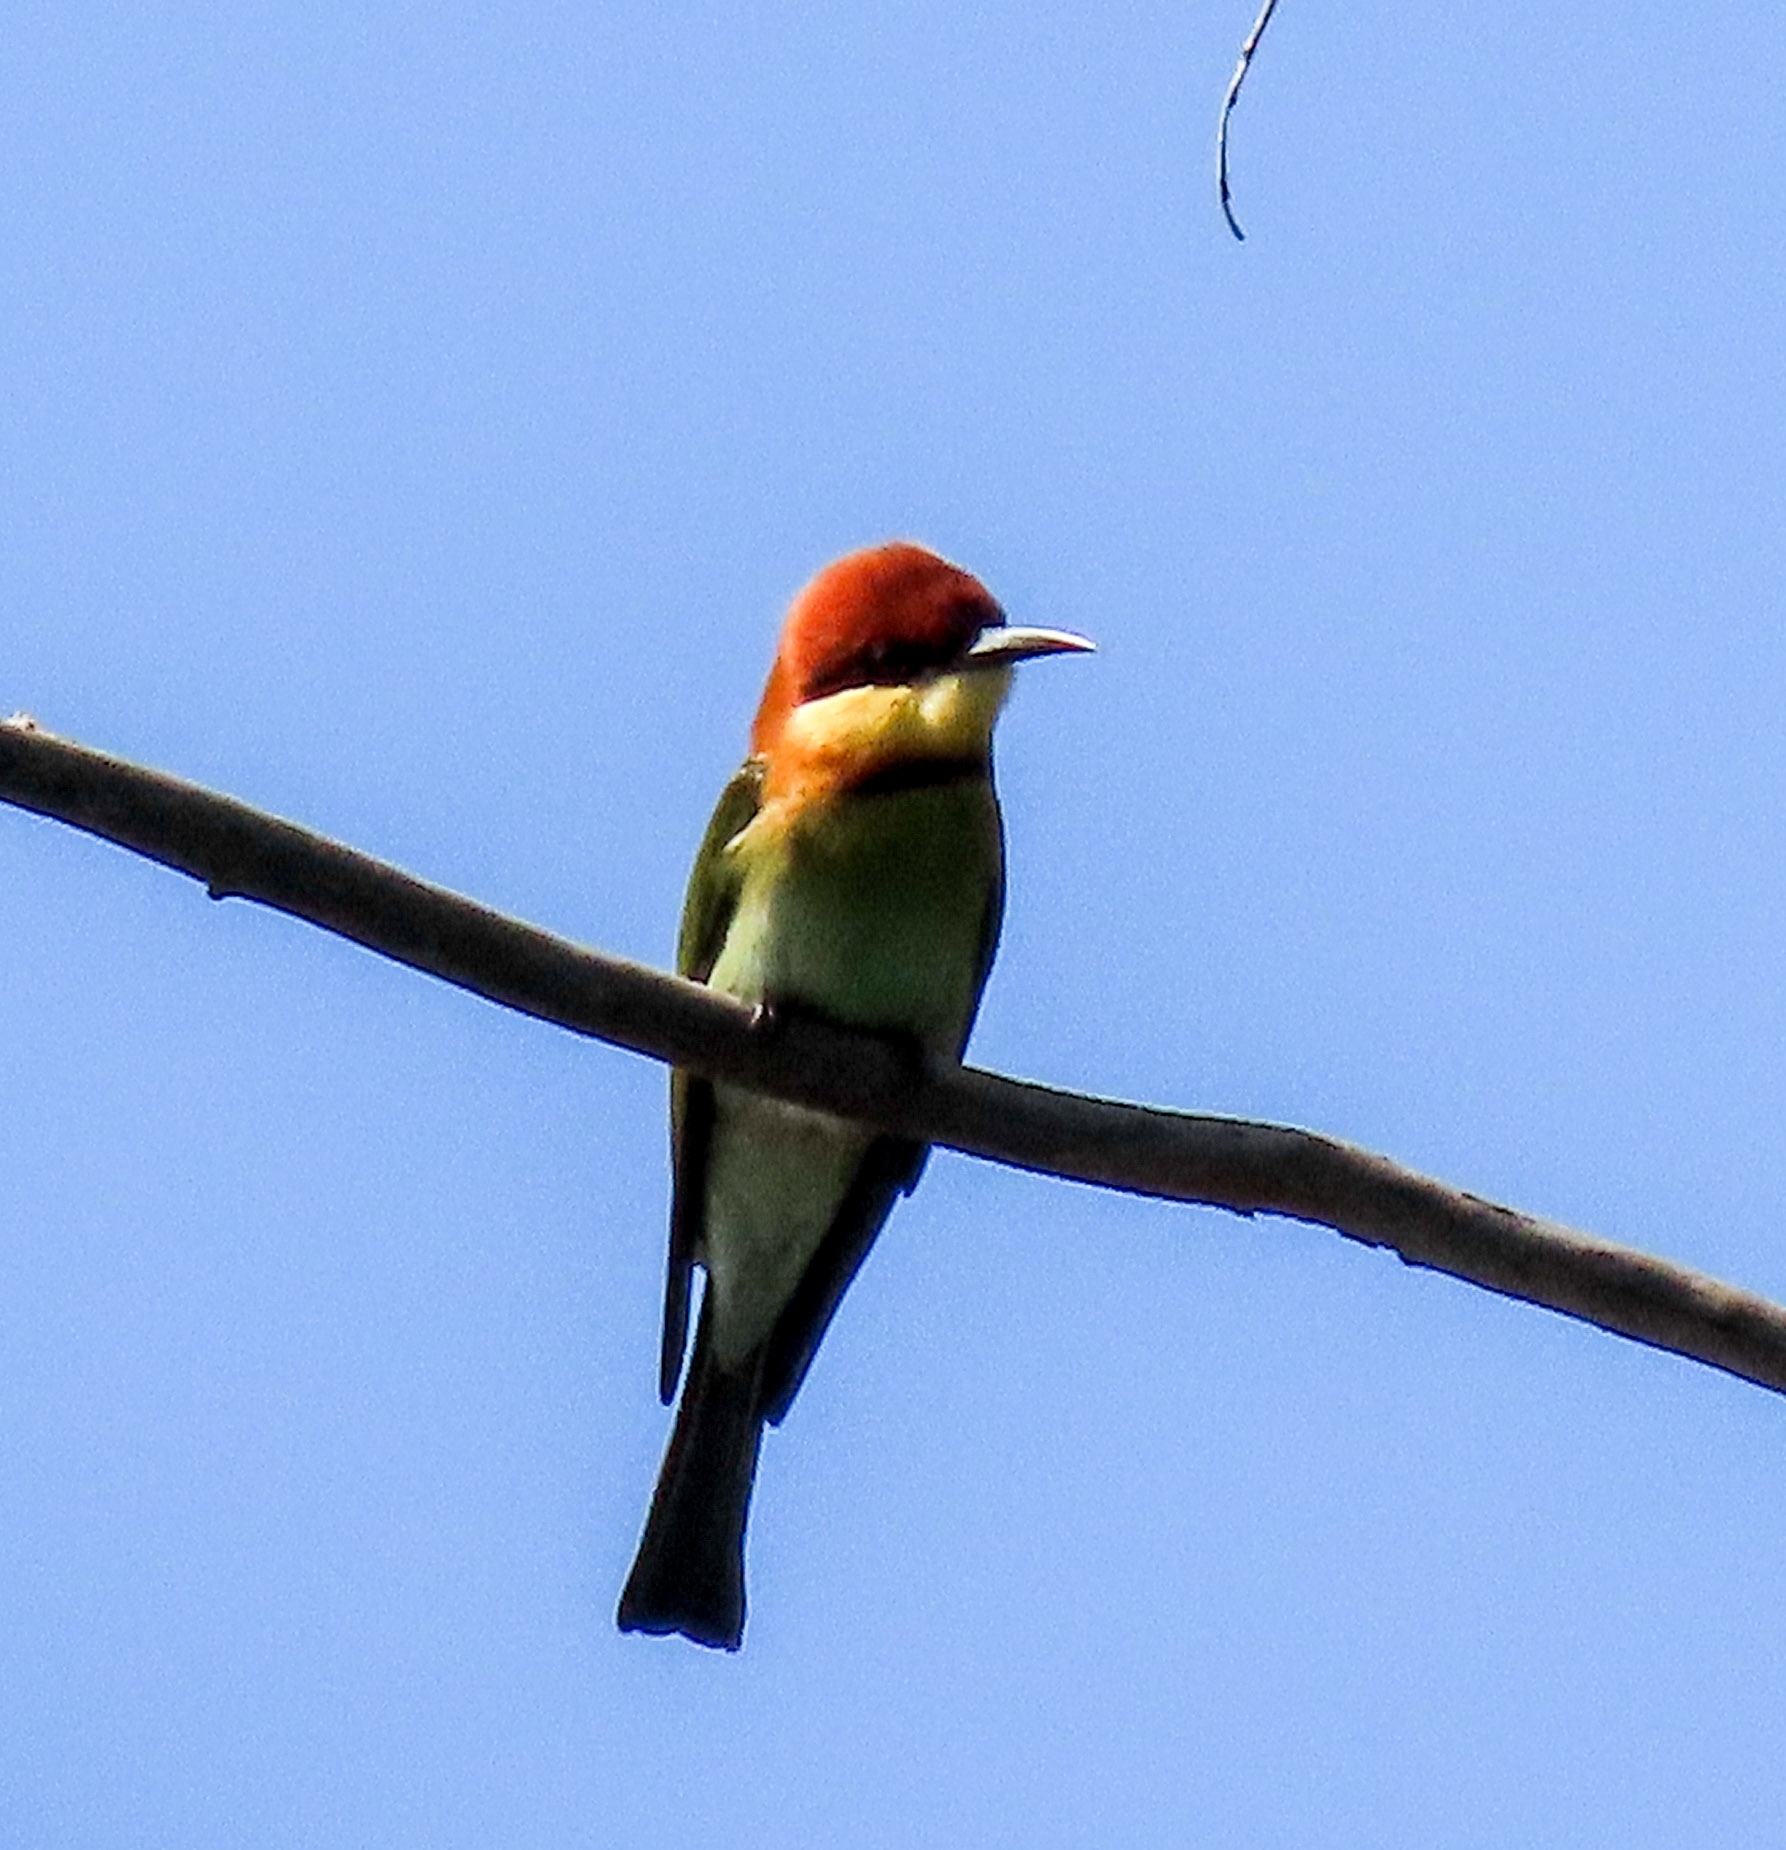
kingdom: Animalia
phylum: Chordata
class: Aves
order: Coraciiformes
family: Meropidae
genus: Merops
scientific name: Merops leschenaulti
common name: Chestnut-headed bee-eater
